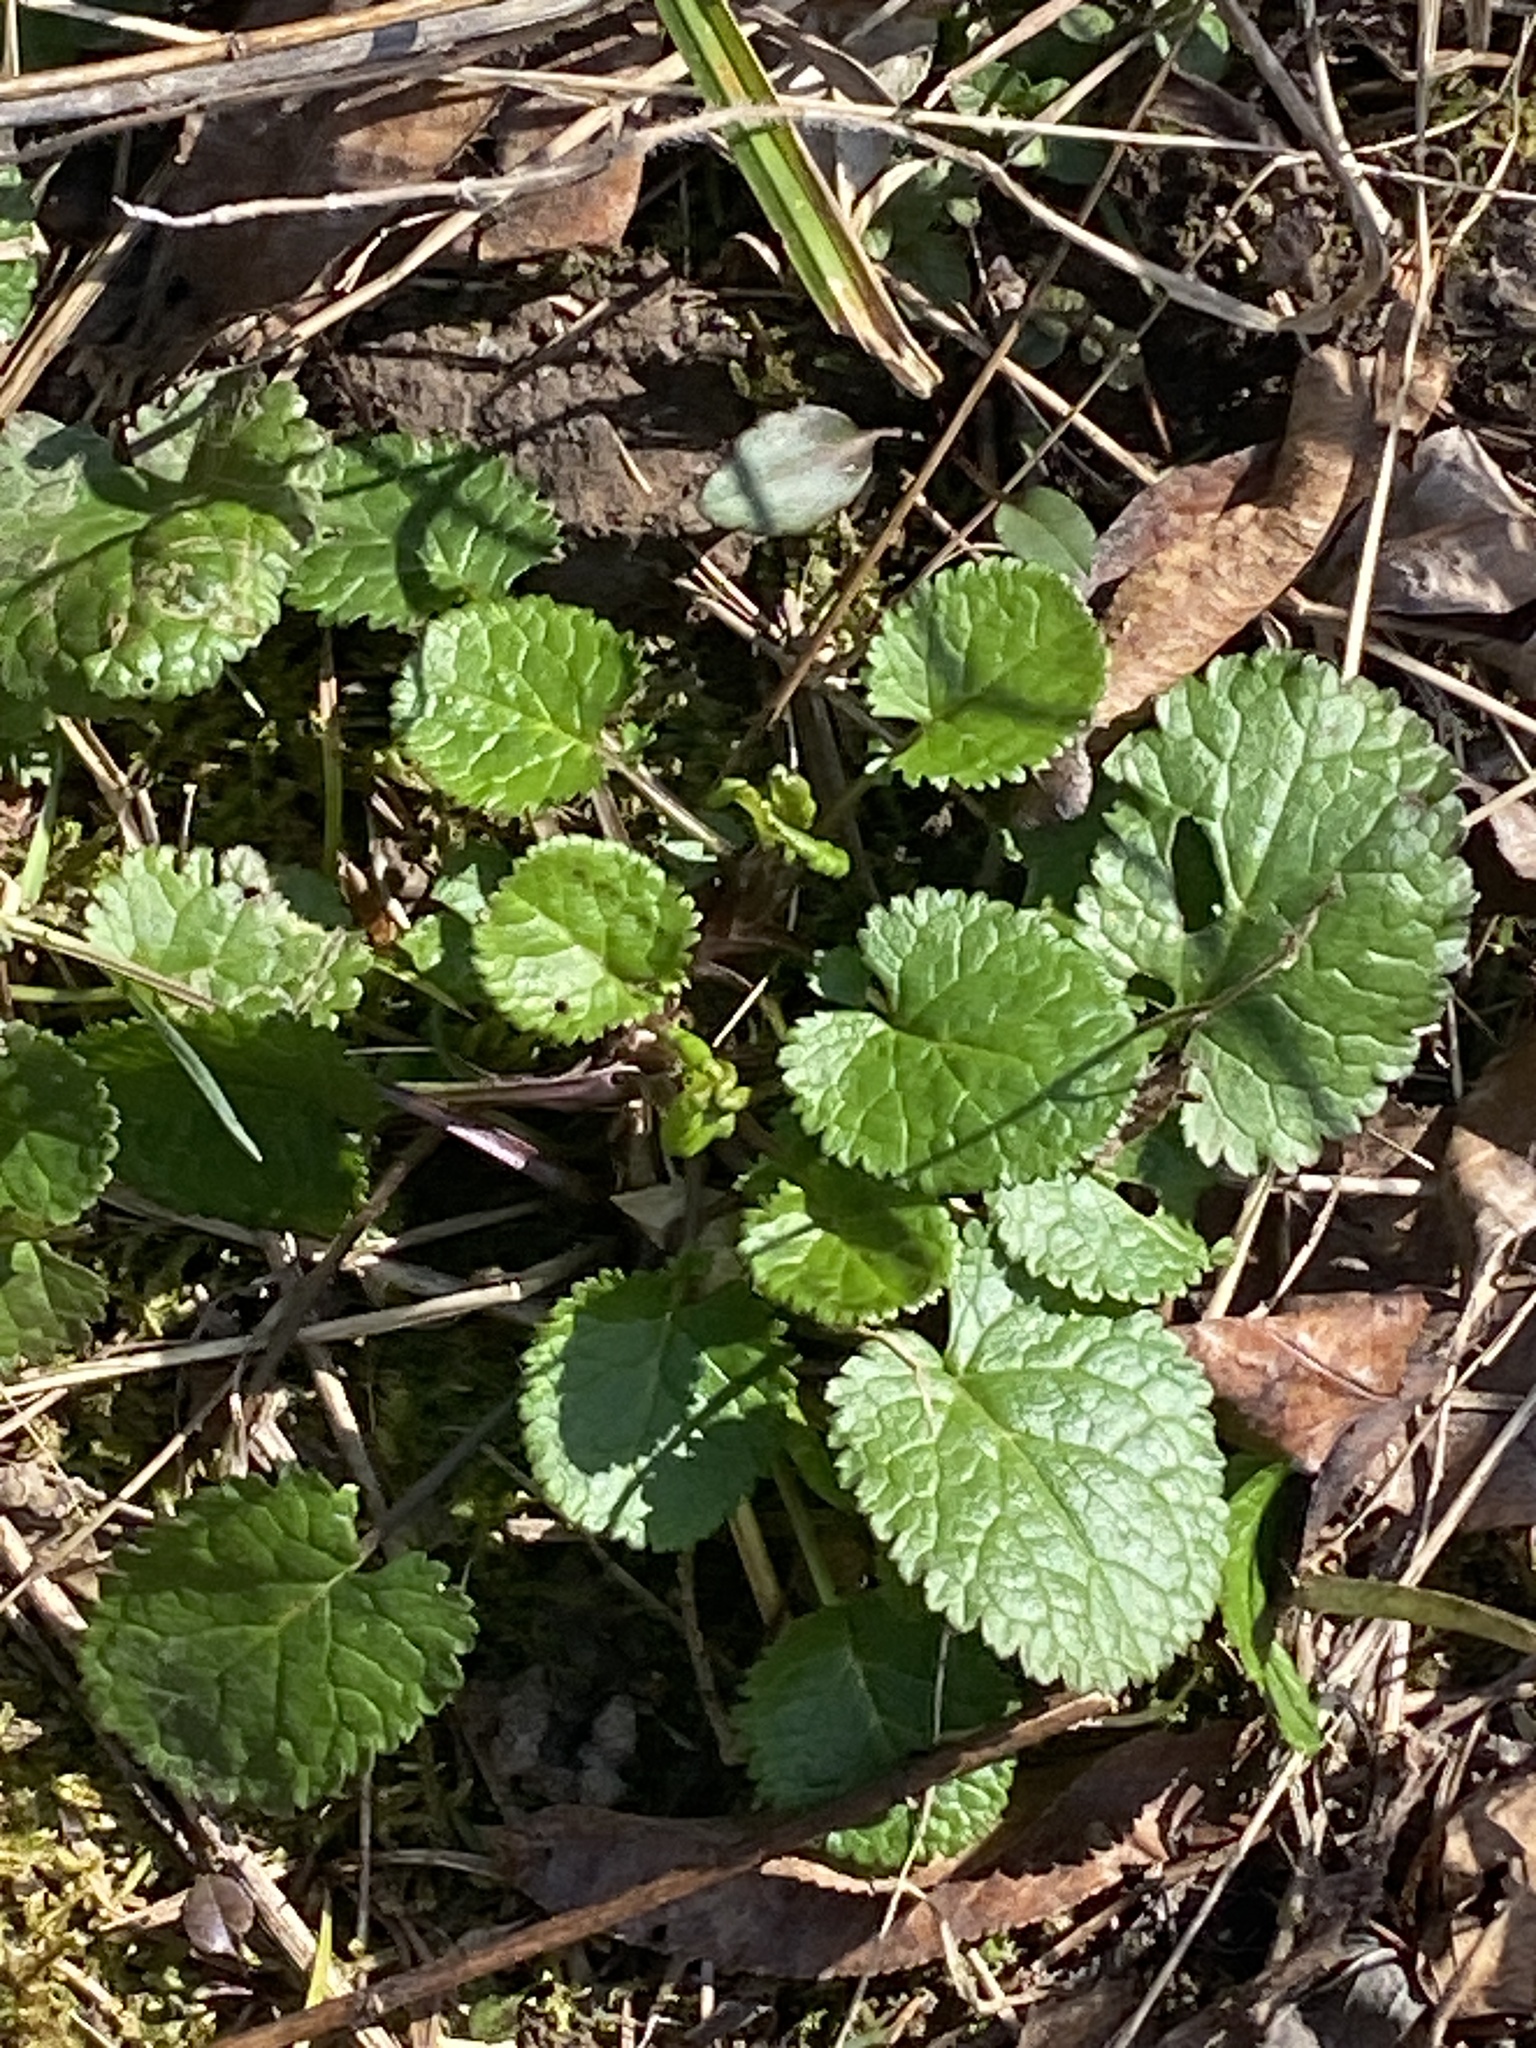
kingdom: Plantae
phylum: Tracheophyta
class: Magnoliopsida
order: Asterales
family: Asteraceae
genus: Packera
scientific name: Packera aurea
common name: Golden groundsel
